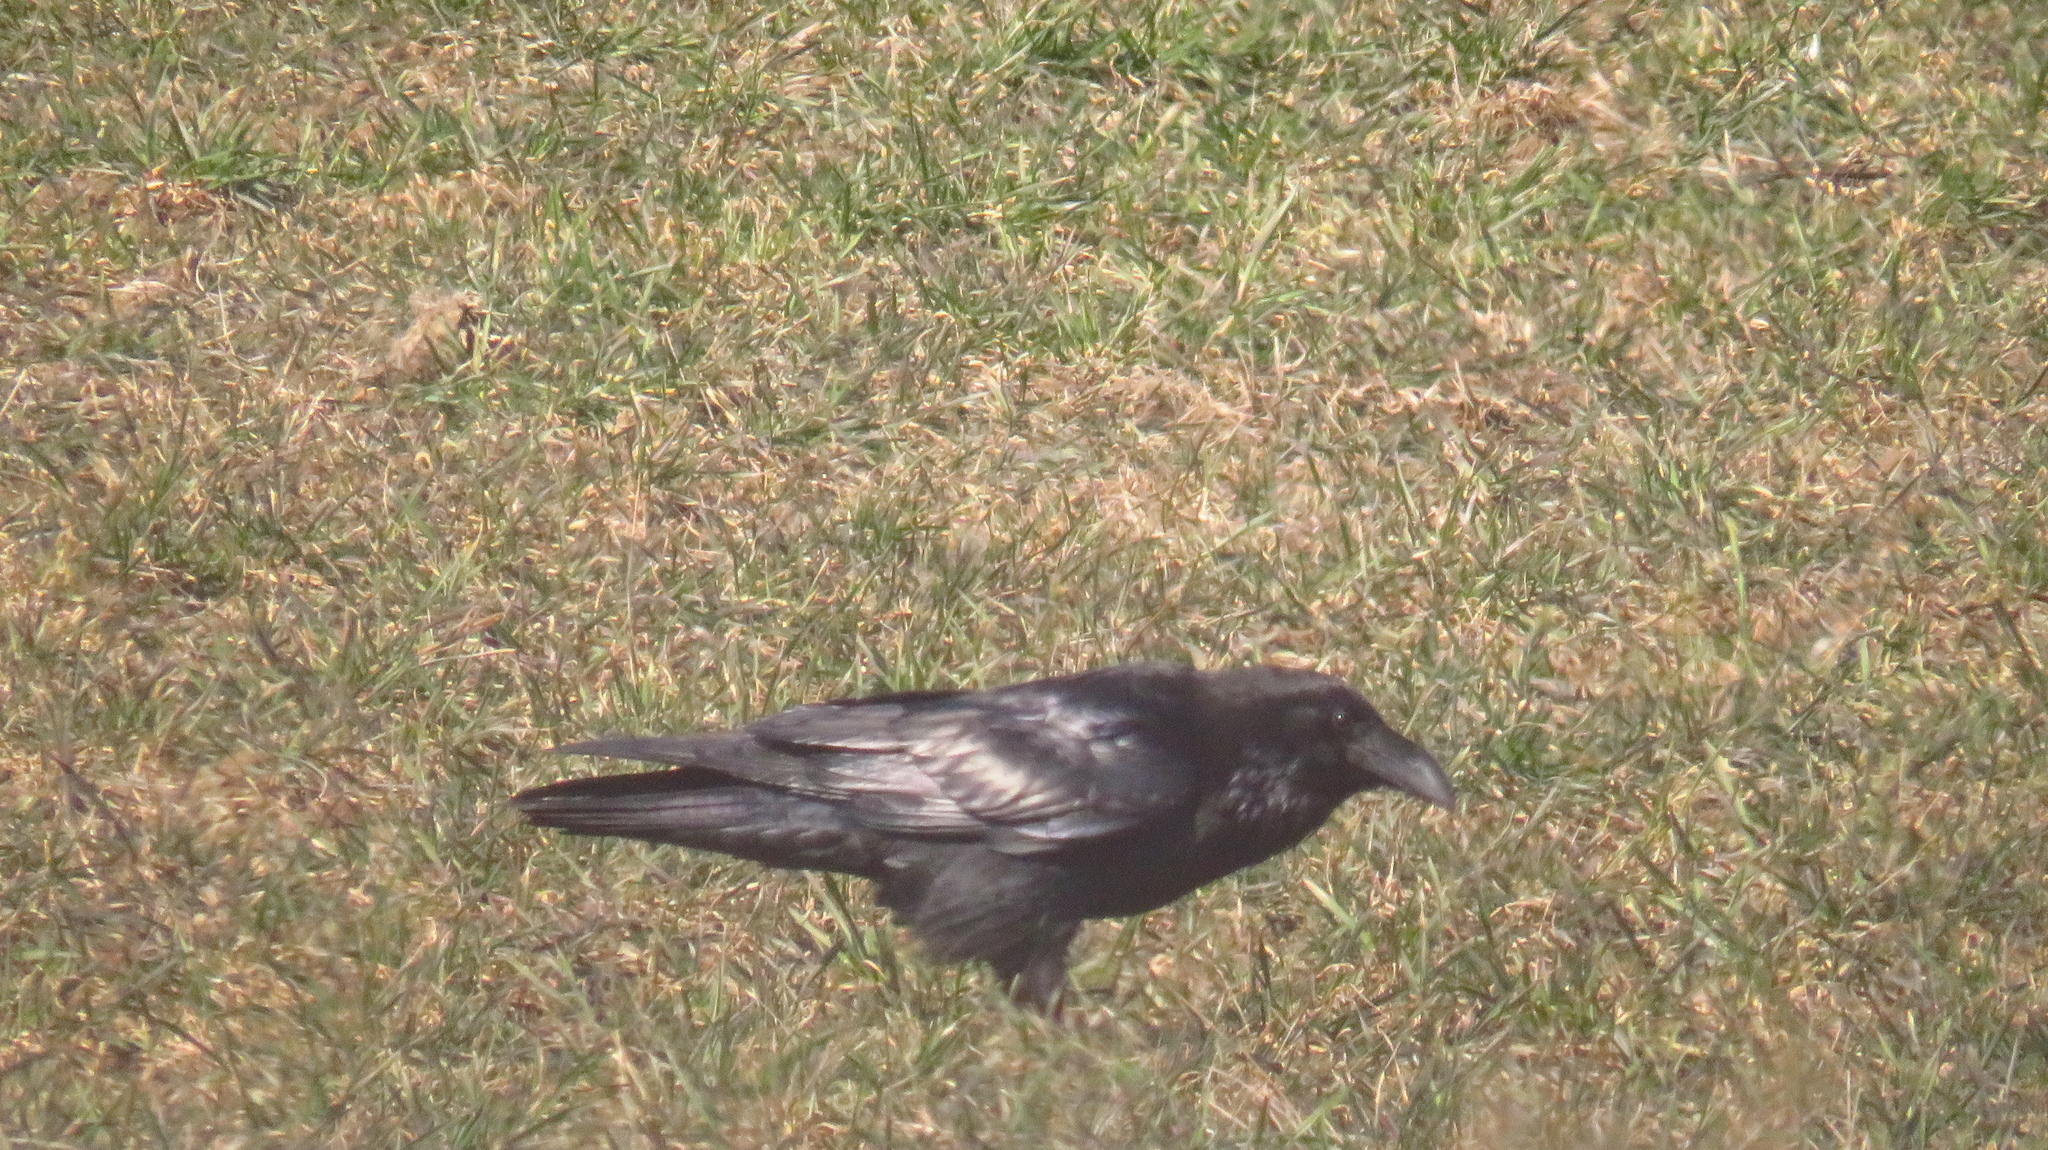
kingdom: Animalia
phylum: Chordata
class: Aves
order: Passeriformes
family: Corvidae
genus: Corvus
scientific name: Corvus corax
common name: Common raven
